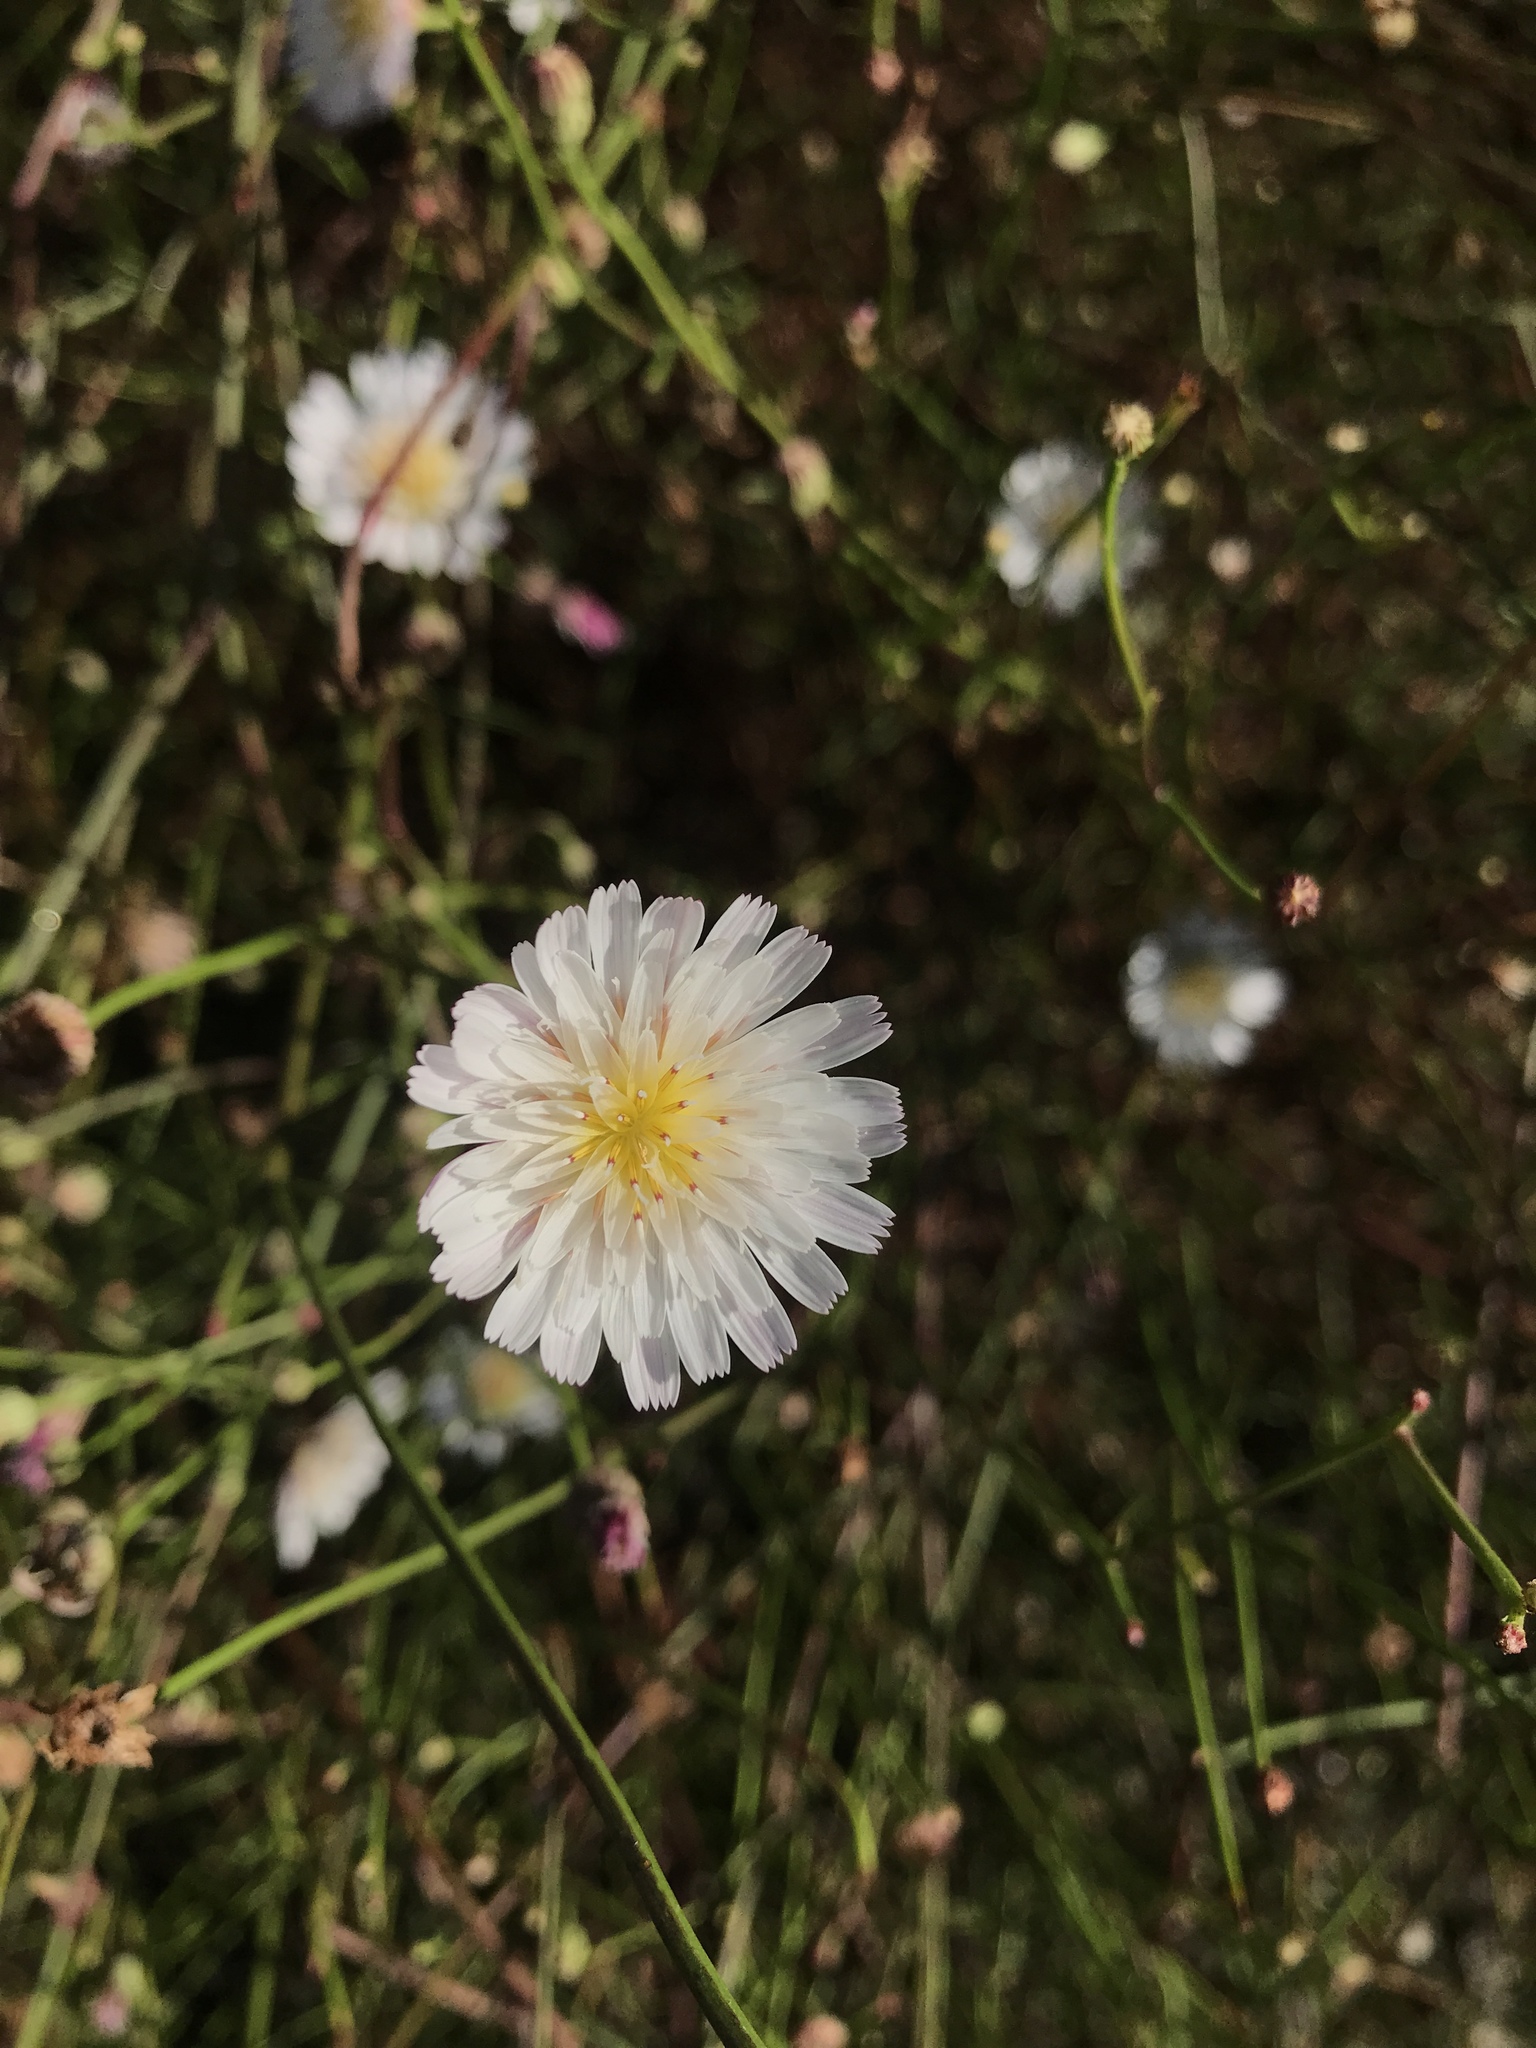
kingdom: Plantae
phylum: Tracheophyta
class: Magnoliopsida
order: Asterales
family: Asteraceae
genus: Malacothrix
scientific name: Malacothrix saxatilis
